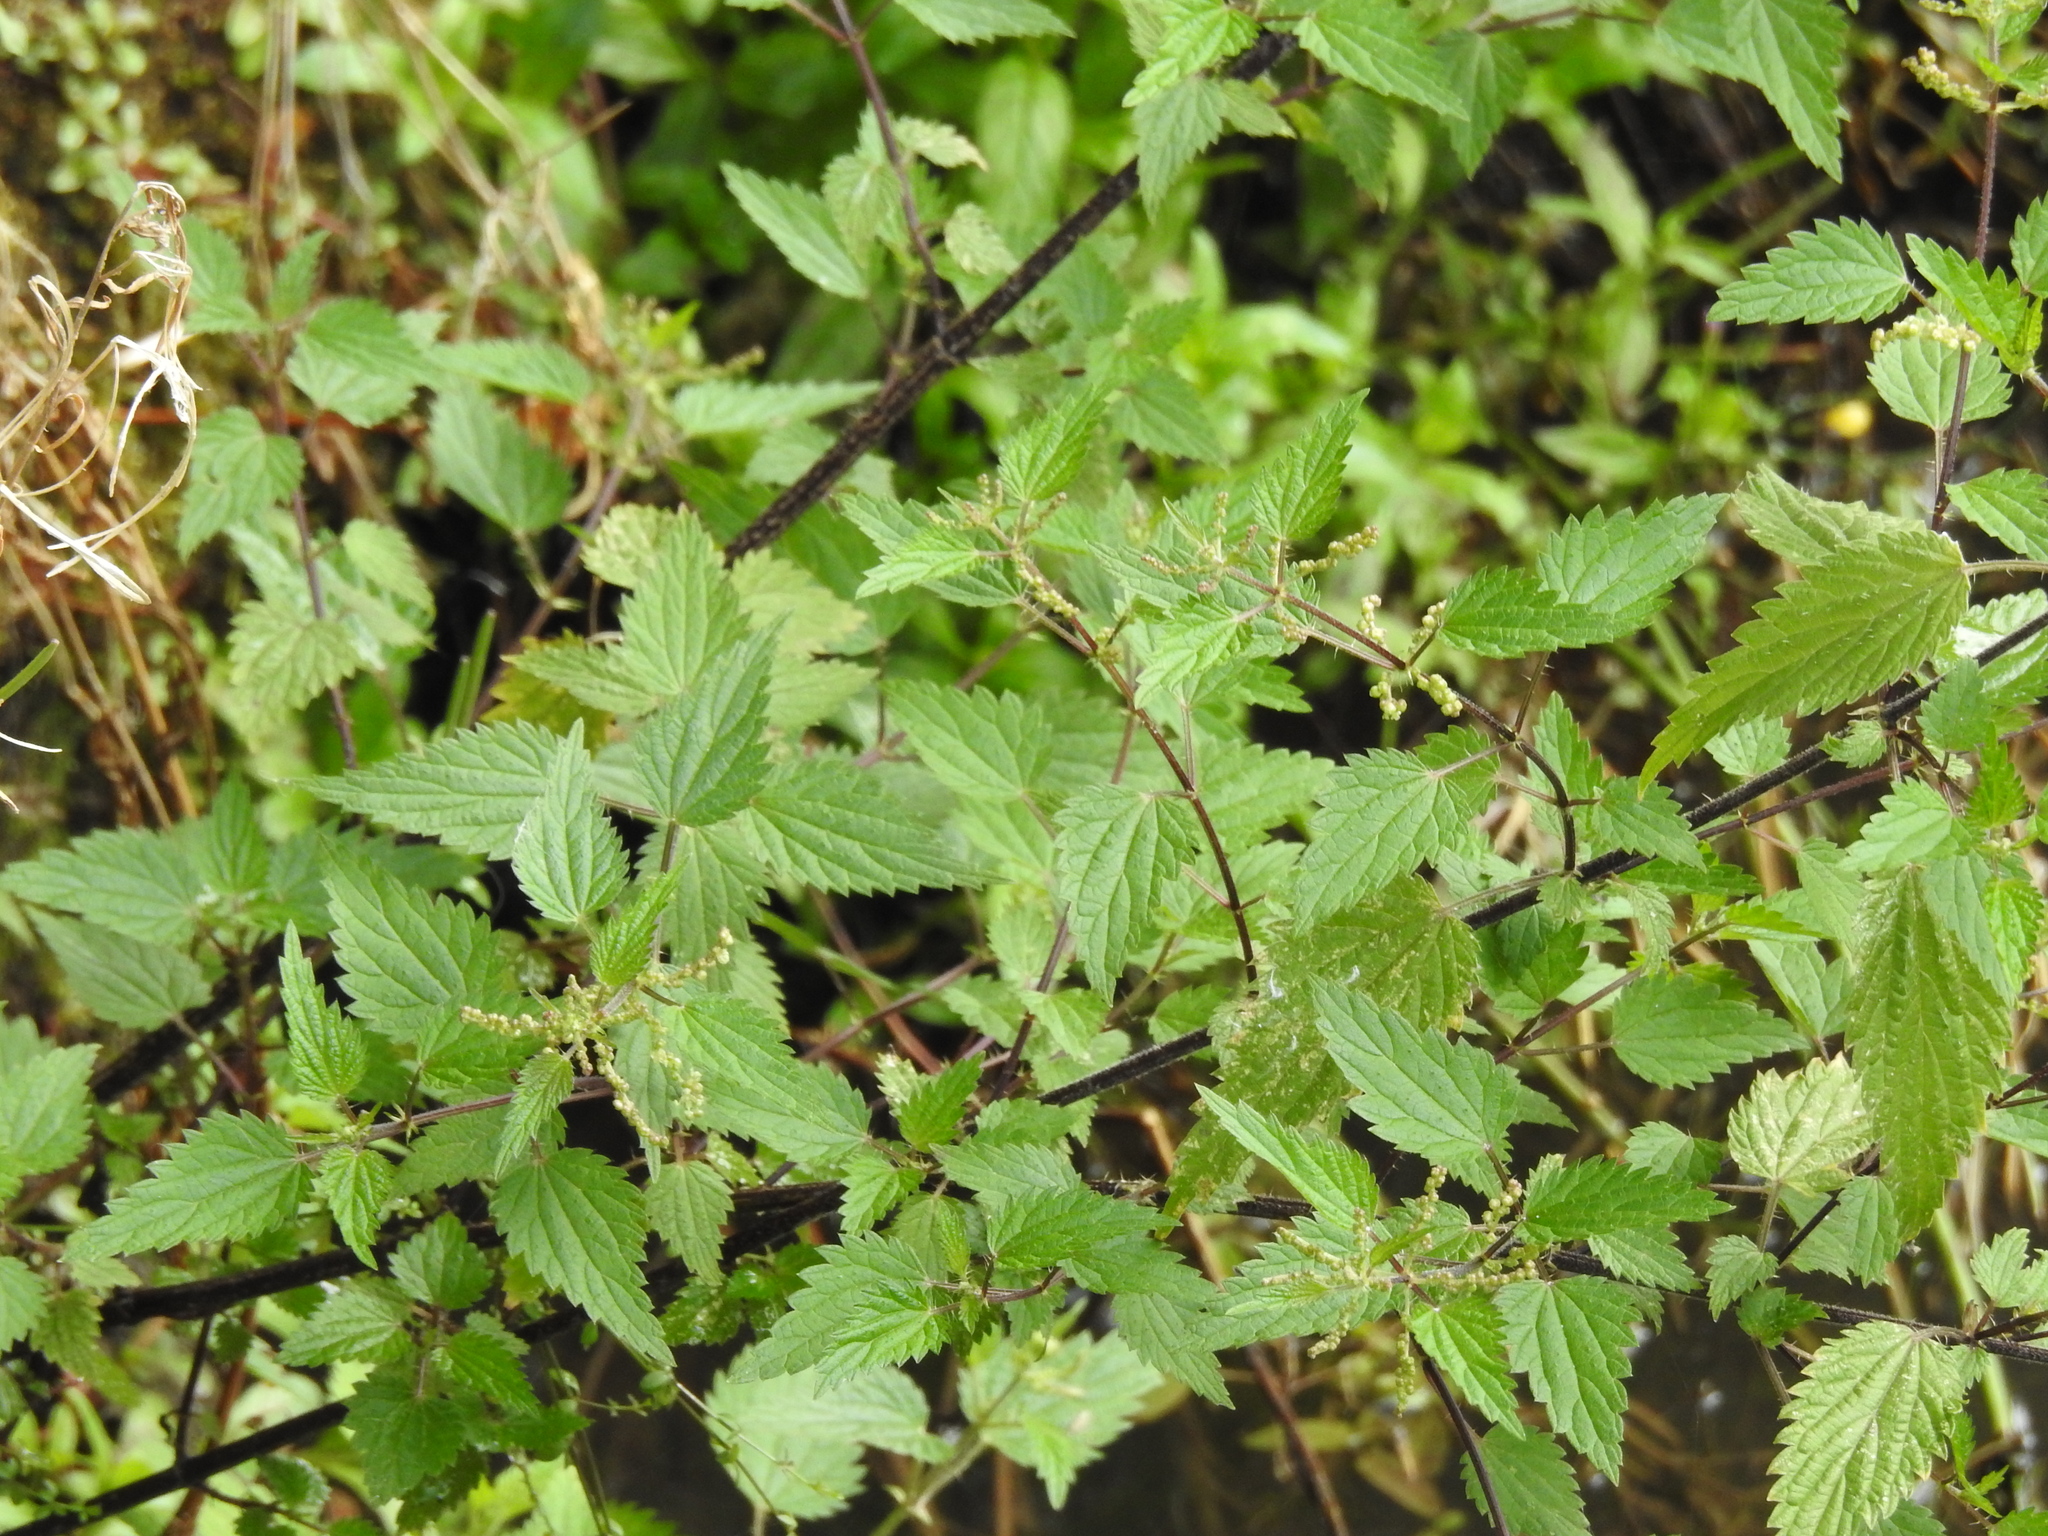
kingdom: Plantae
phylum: Tracheophyta
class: Magnoliopsida
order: Rosales
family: Urticaceae
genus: Urtica
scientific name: Urtica dioica
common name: Common nettle
